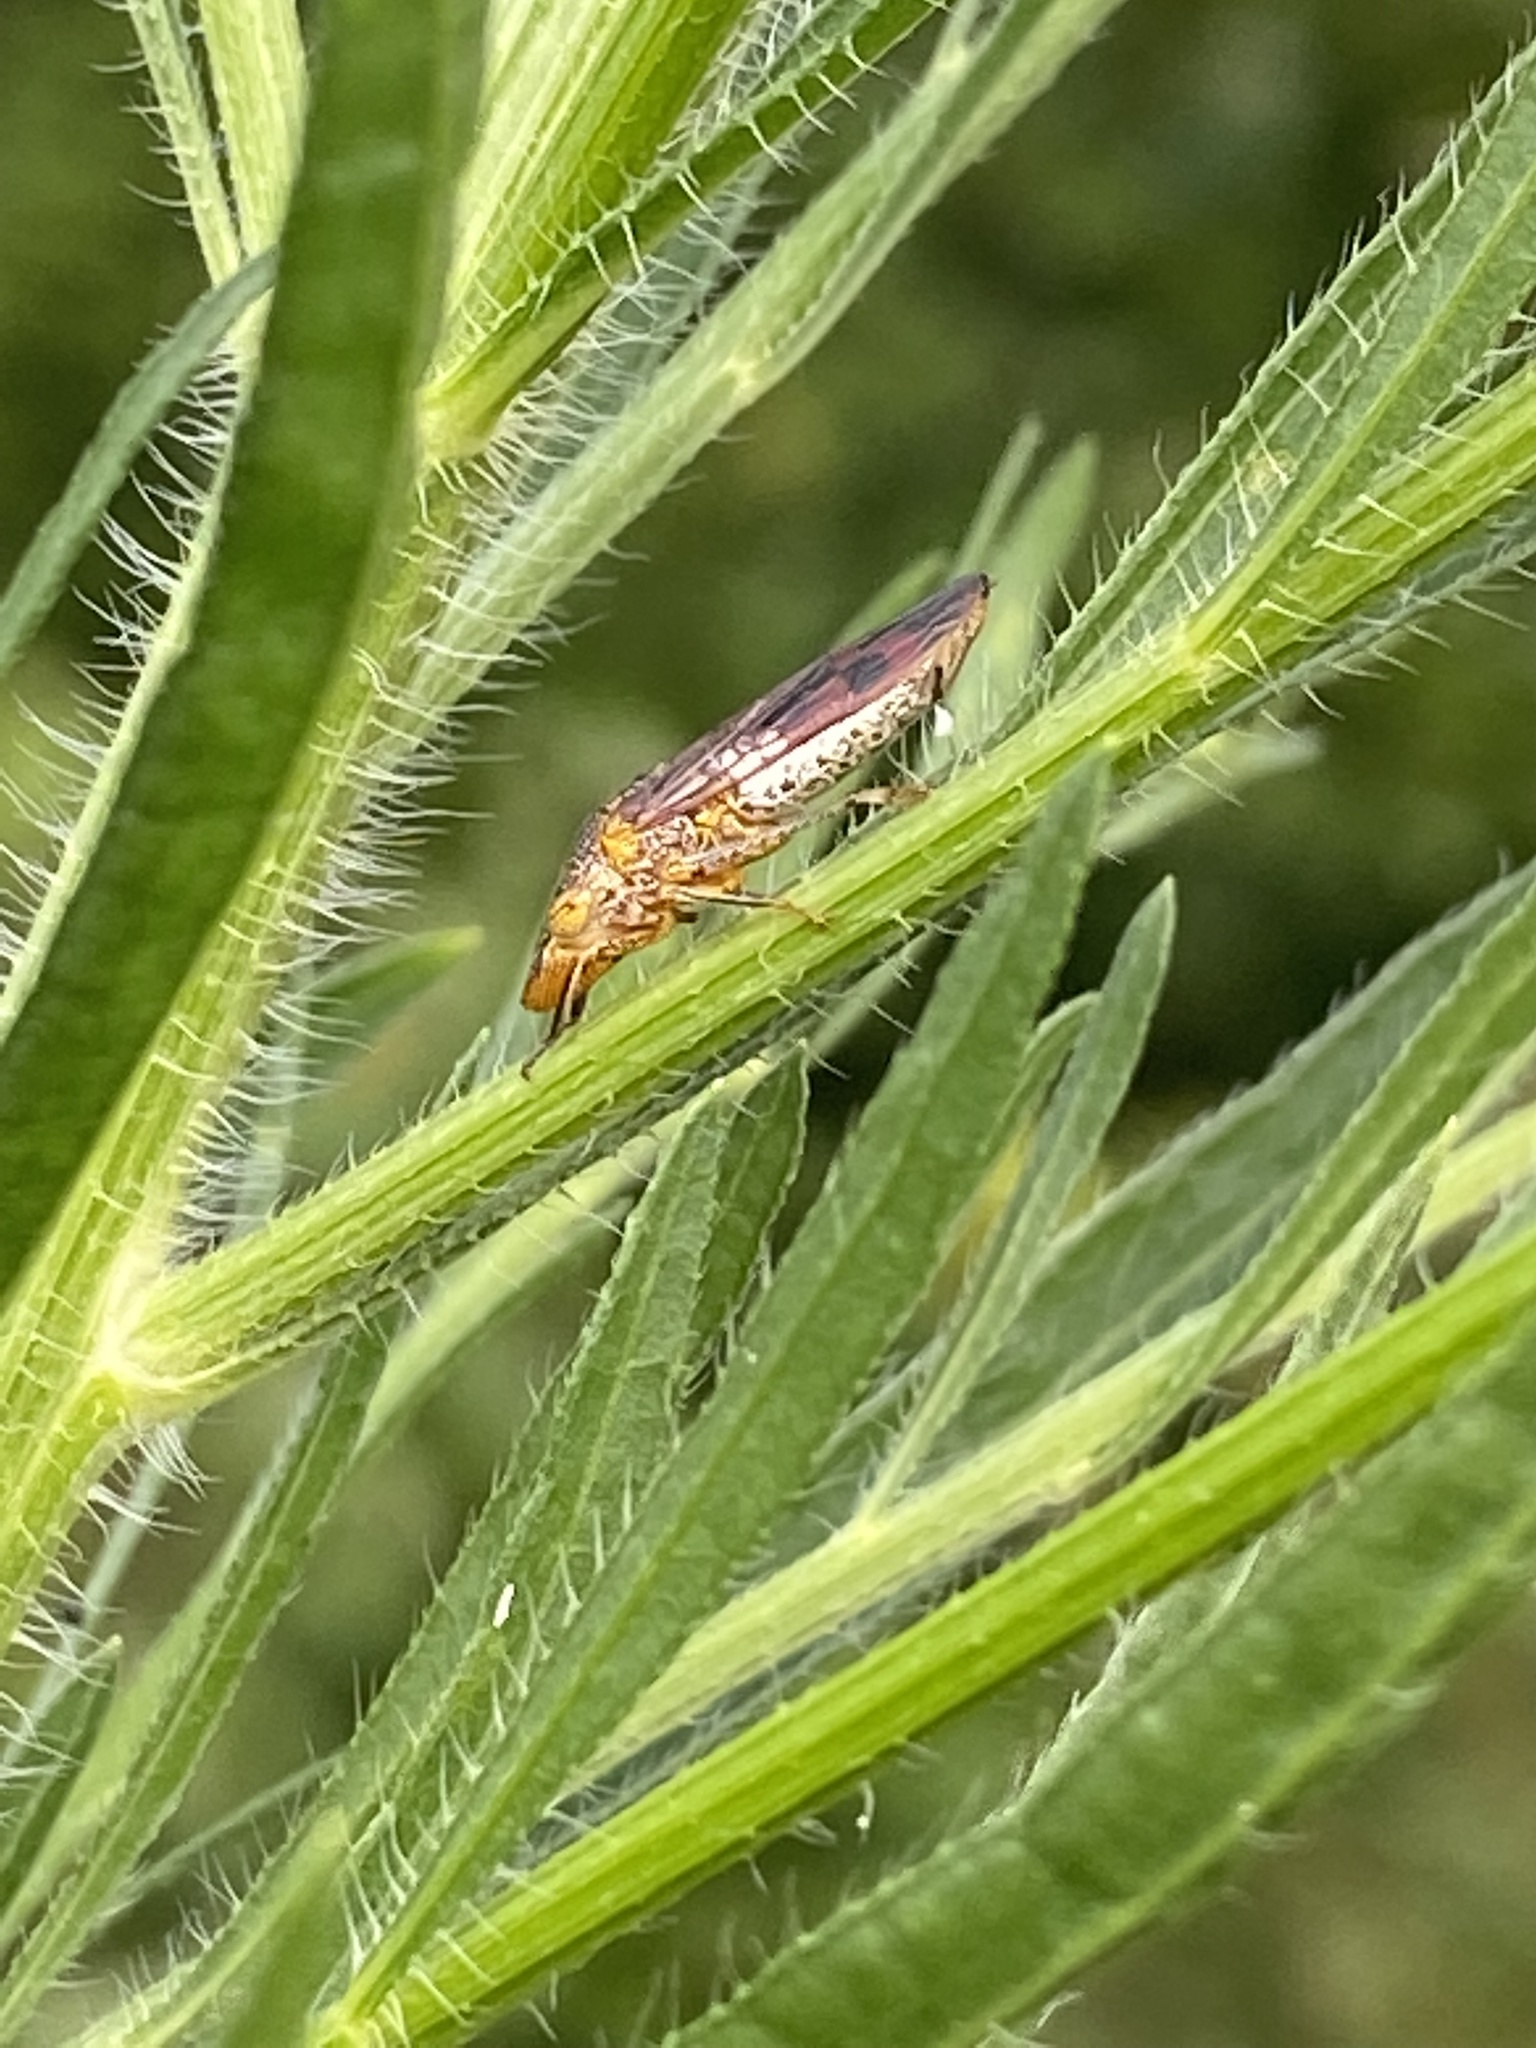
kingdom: Animalia
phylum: Arthropoda
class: Insecta
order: Hemiptera
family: Cicadellidae
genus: Homalodisca
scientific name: Homalodisca vitripennis
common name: Glassy-winged sharpshooter
